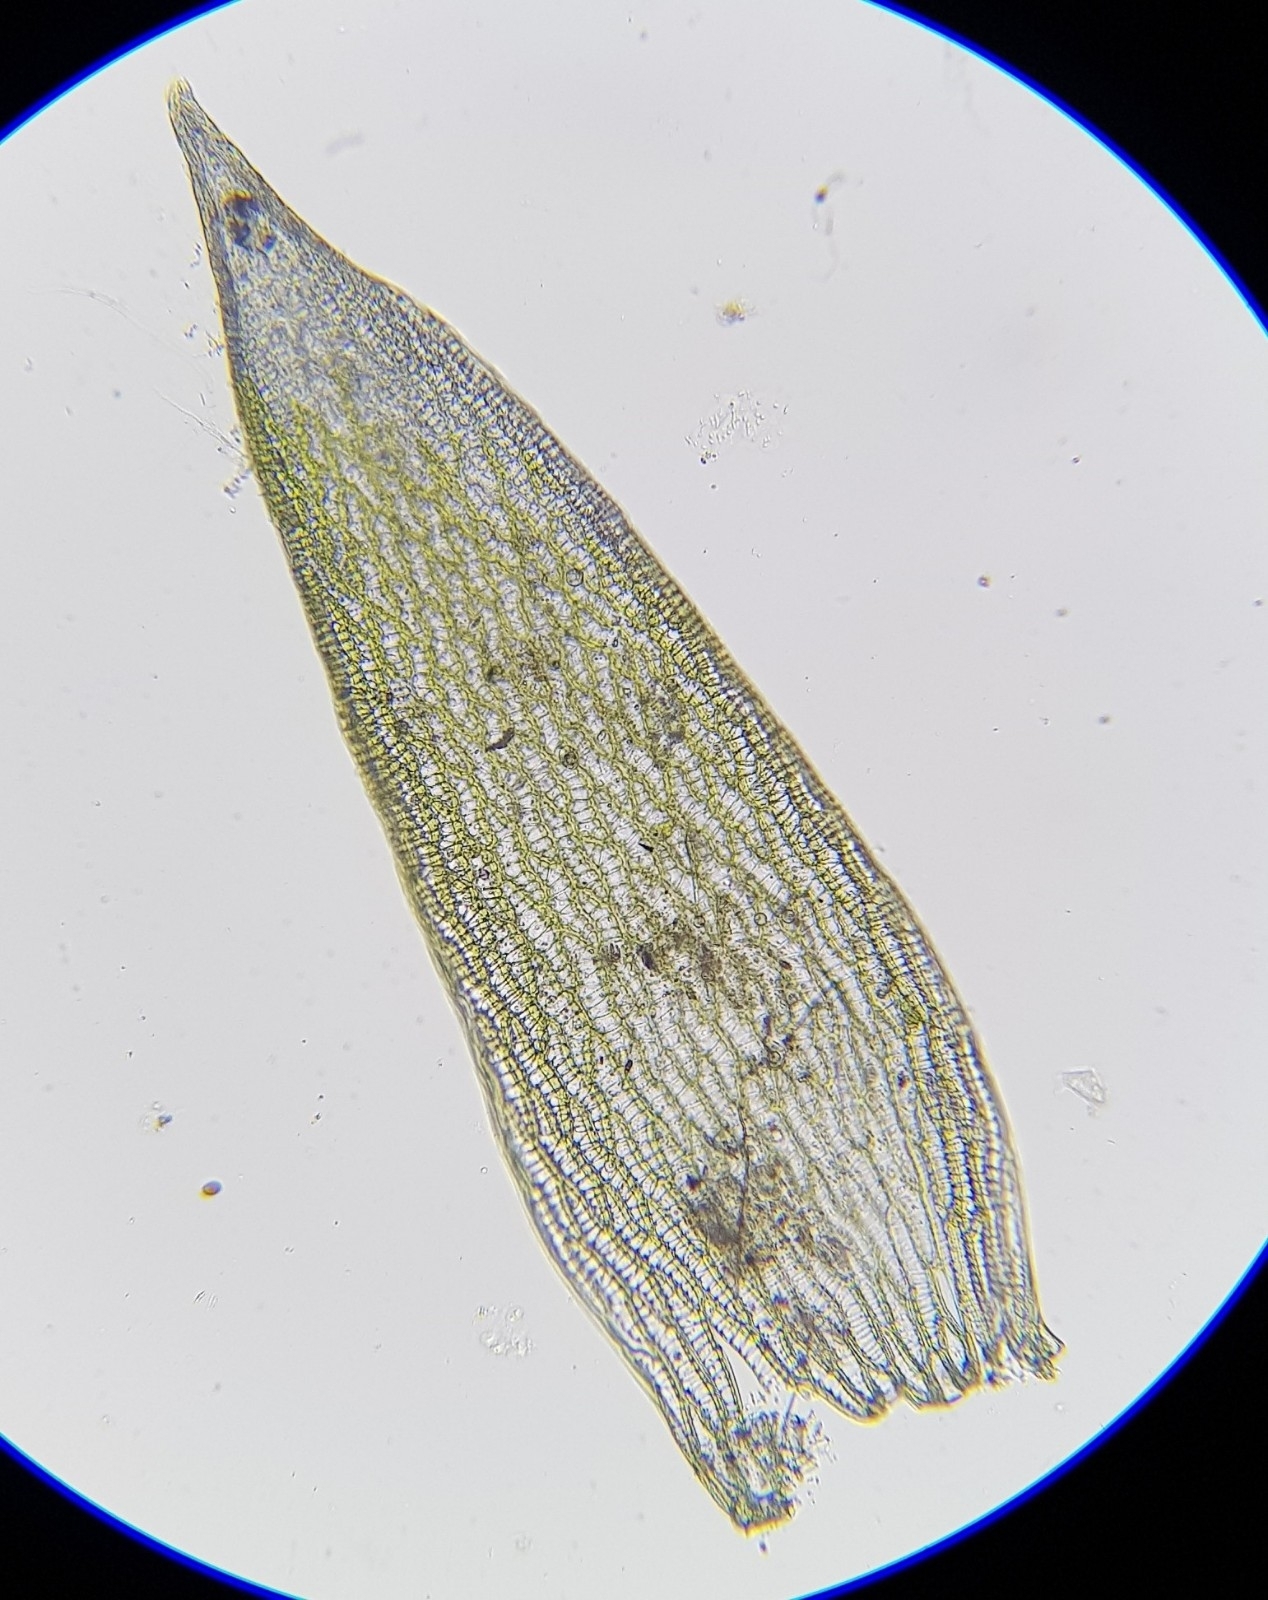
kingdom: Plantae
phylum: Bryophyta
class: Sphagnopsida
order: Sphagnales
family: Sphagnaceae
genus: Sphagnum
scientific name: Sphagnum fallax
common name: Flat-top peat moss
